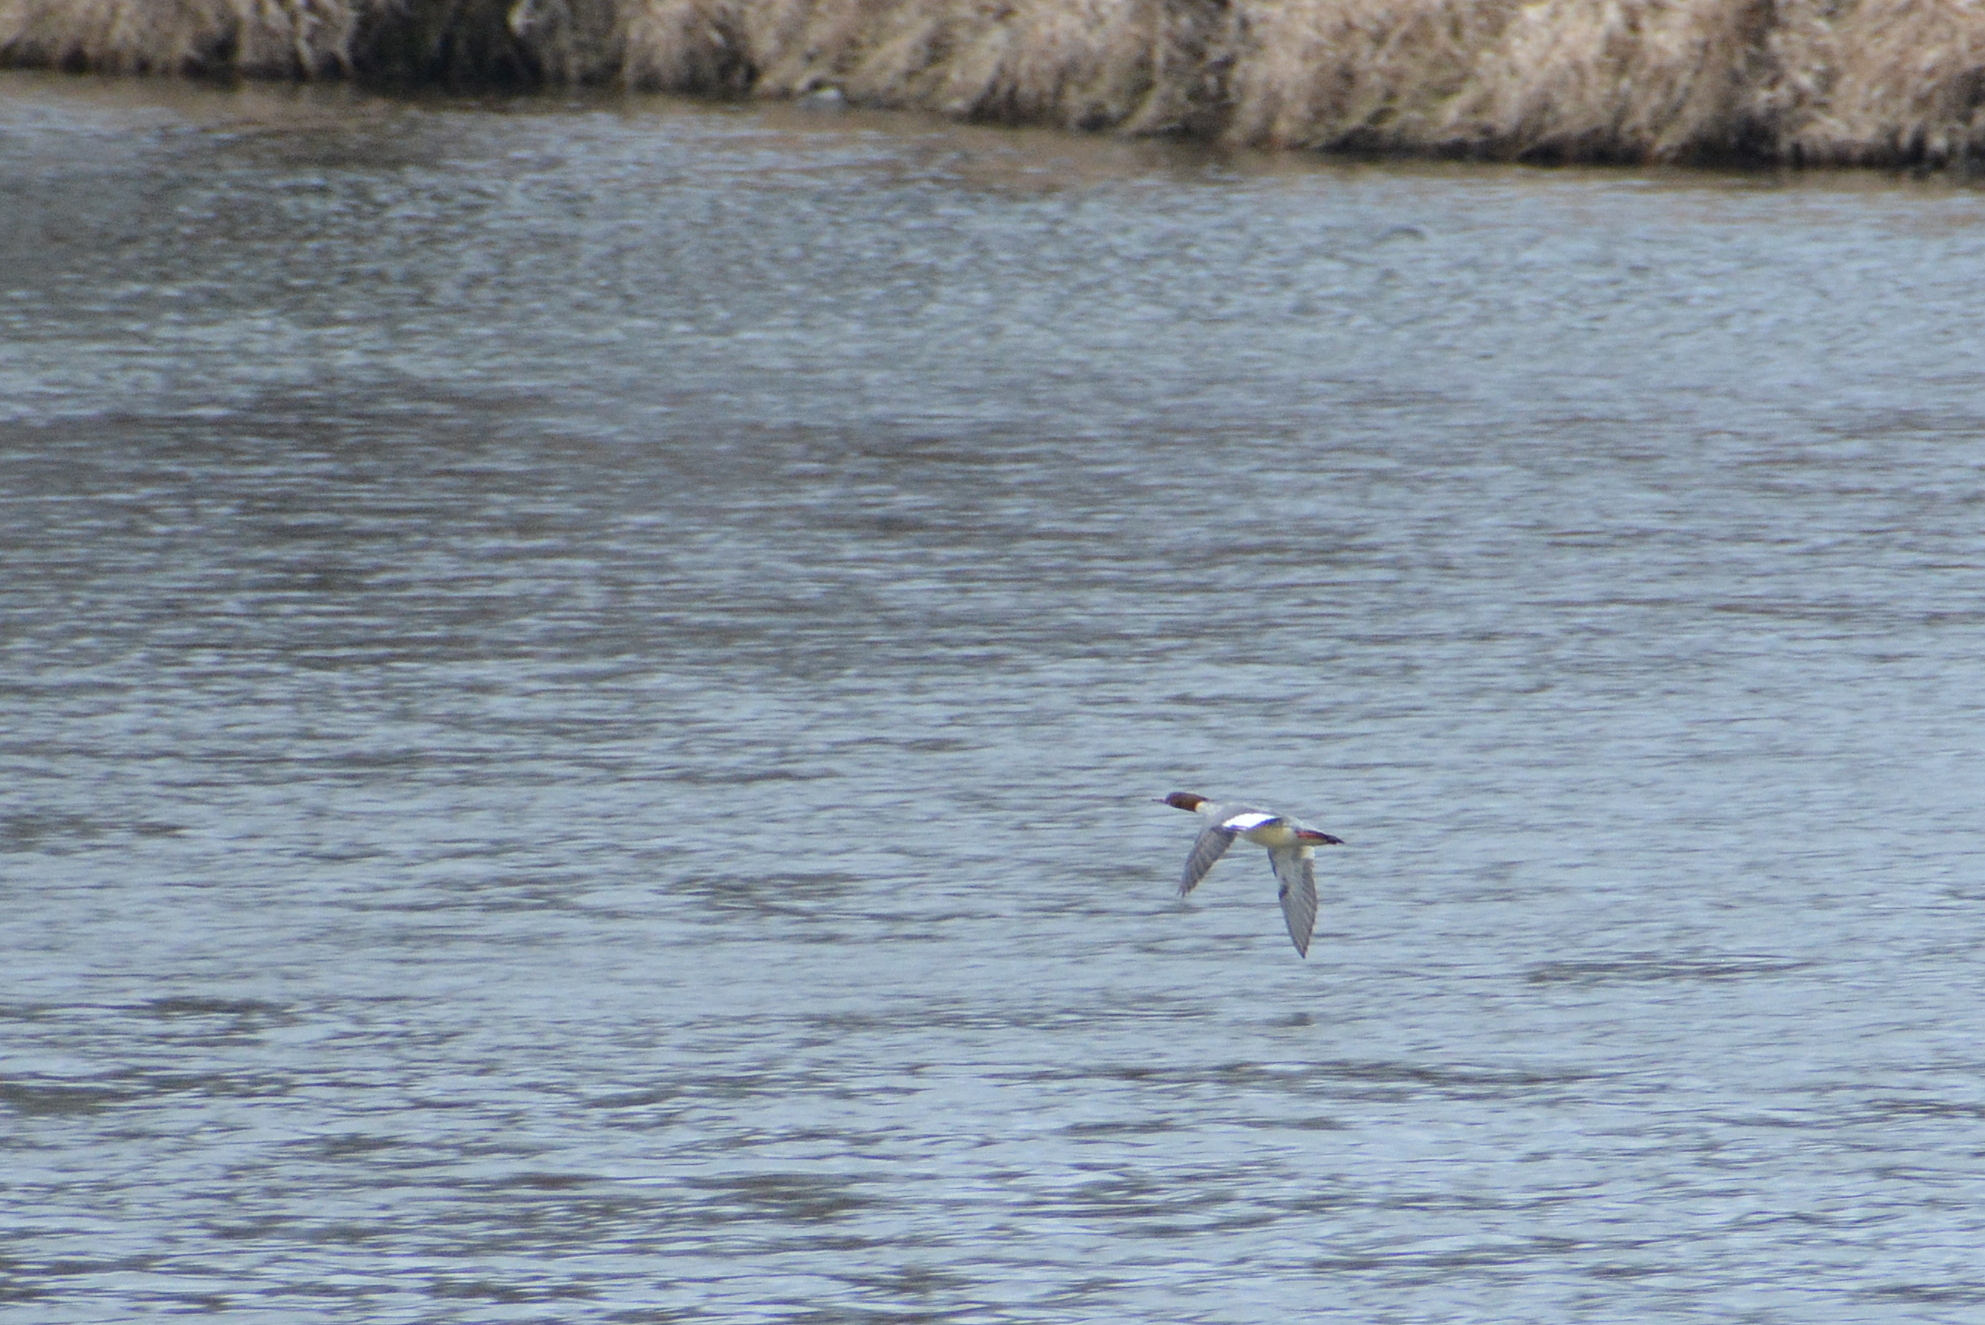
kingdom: Animalia
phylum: Chordata
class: Aves
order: Anseriformes
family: Anatidae
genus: Mergus
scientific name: Mergus merganser
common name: Common merganser
